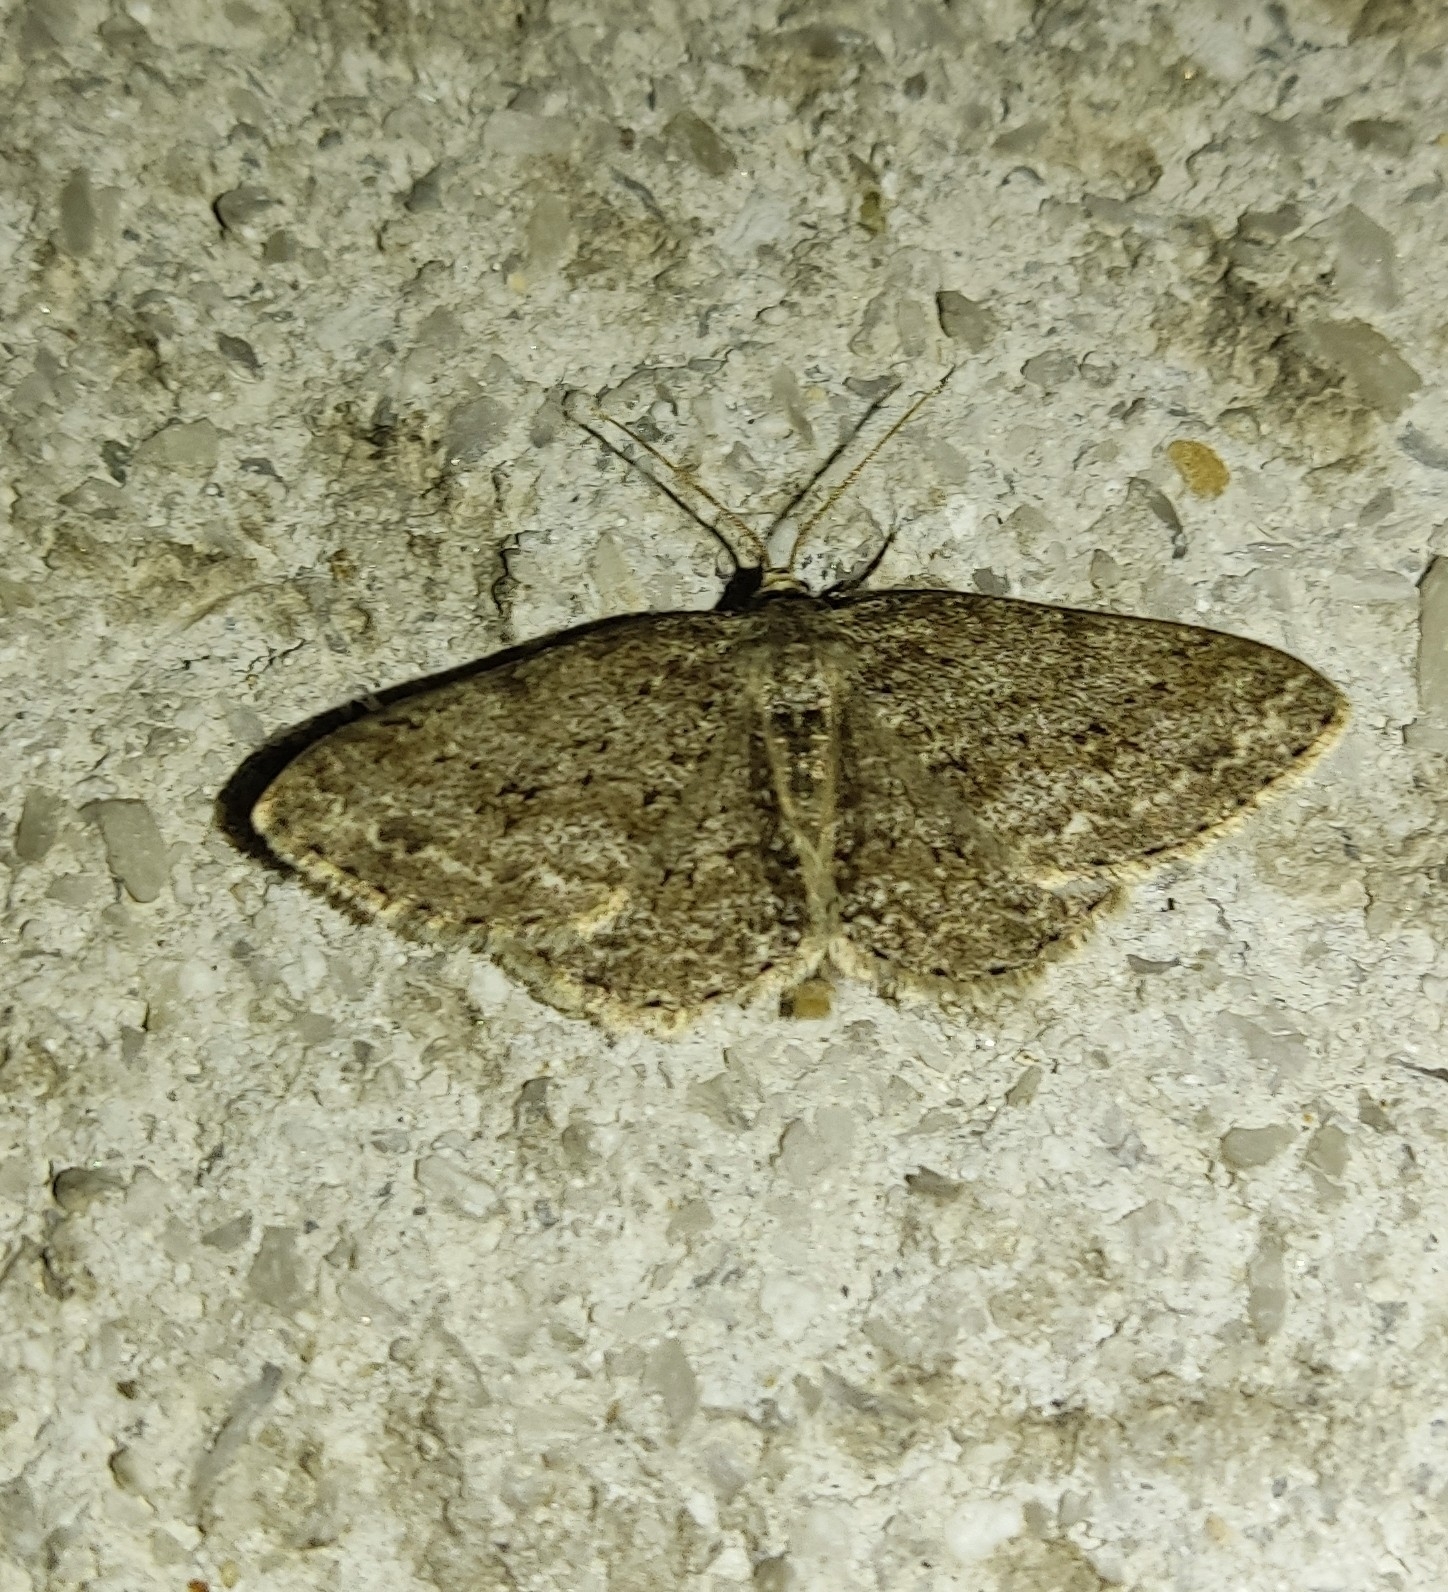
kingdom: Animalia
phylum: Arthropoda
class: Insecta
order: Lepidoptera
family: Geometridae
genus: Ectropis
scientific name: Ectropis crepuscularia
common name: Engrailed
